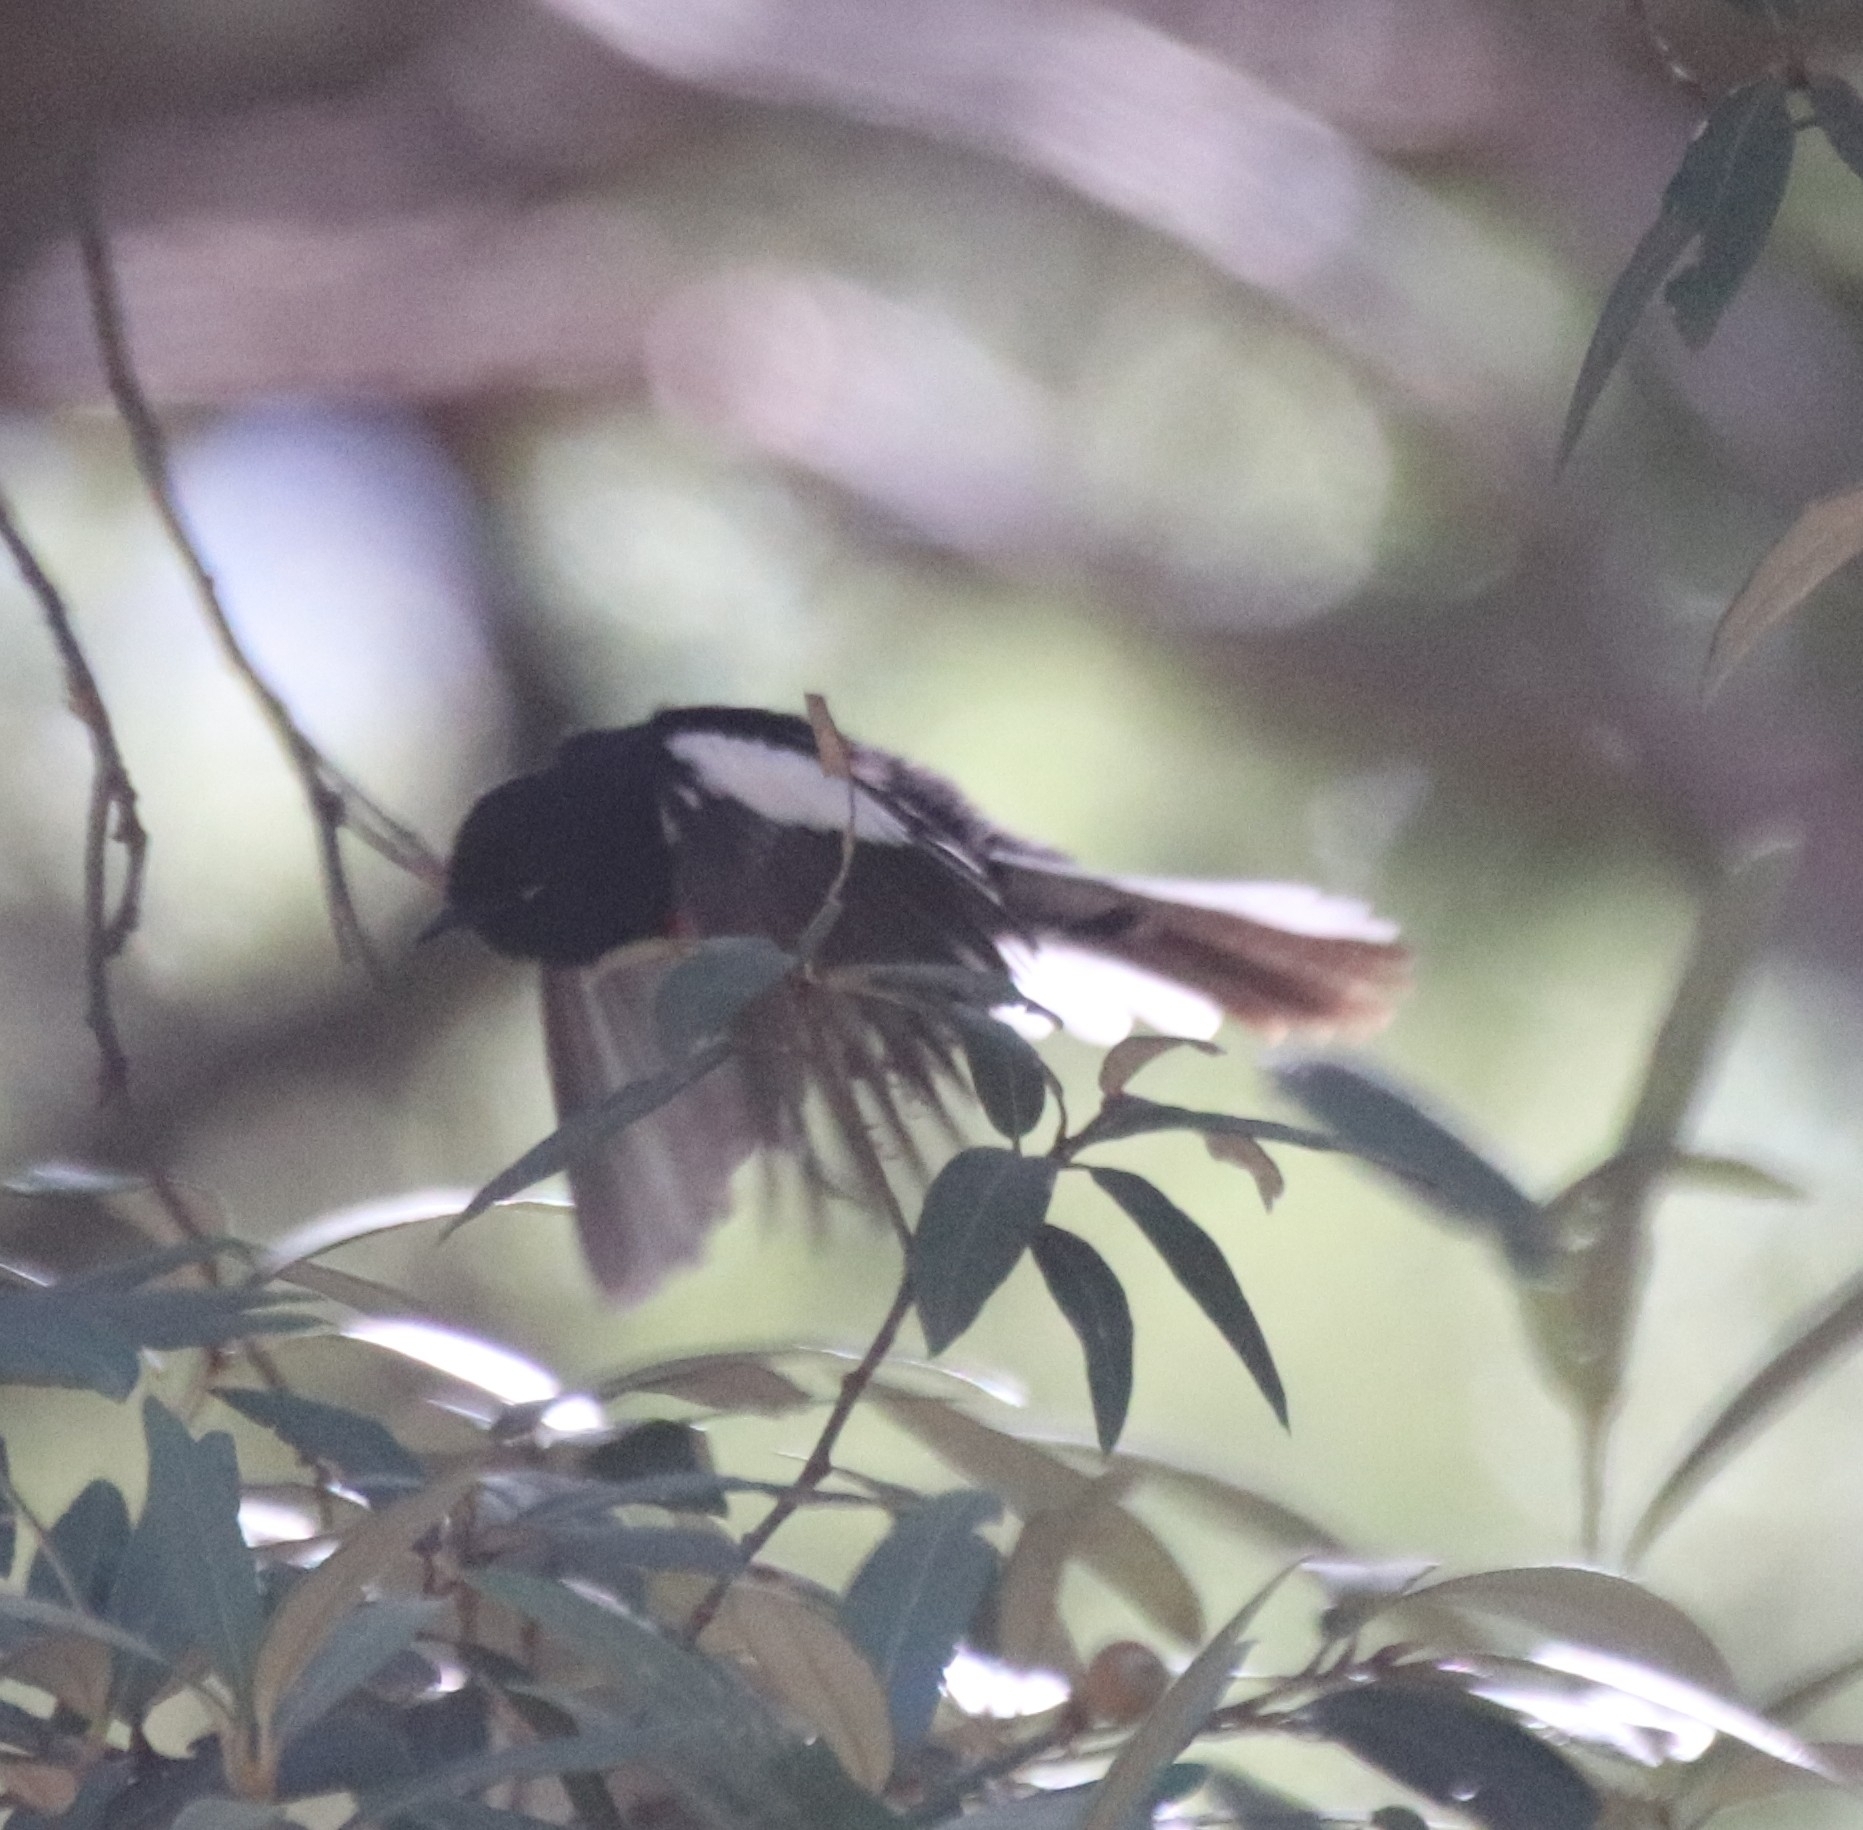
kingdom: Animalia
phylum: Chordata
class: Aves
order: Passeriformes
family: Parulidae
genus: Myioborus
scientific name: Myioborus pictus
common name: Painted whitestart
